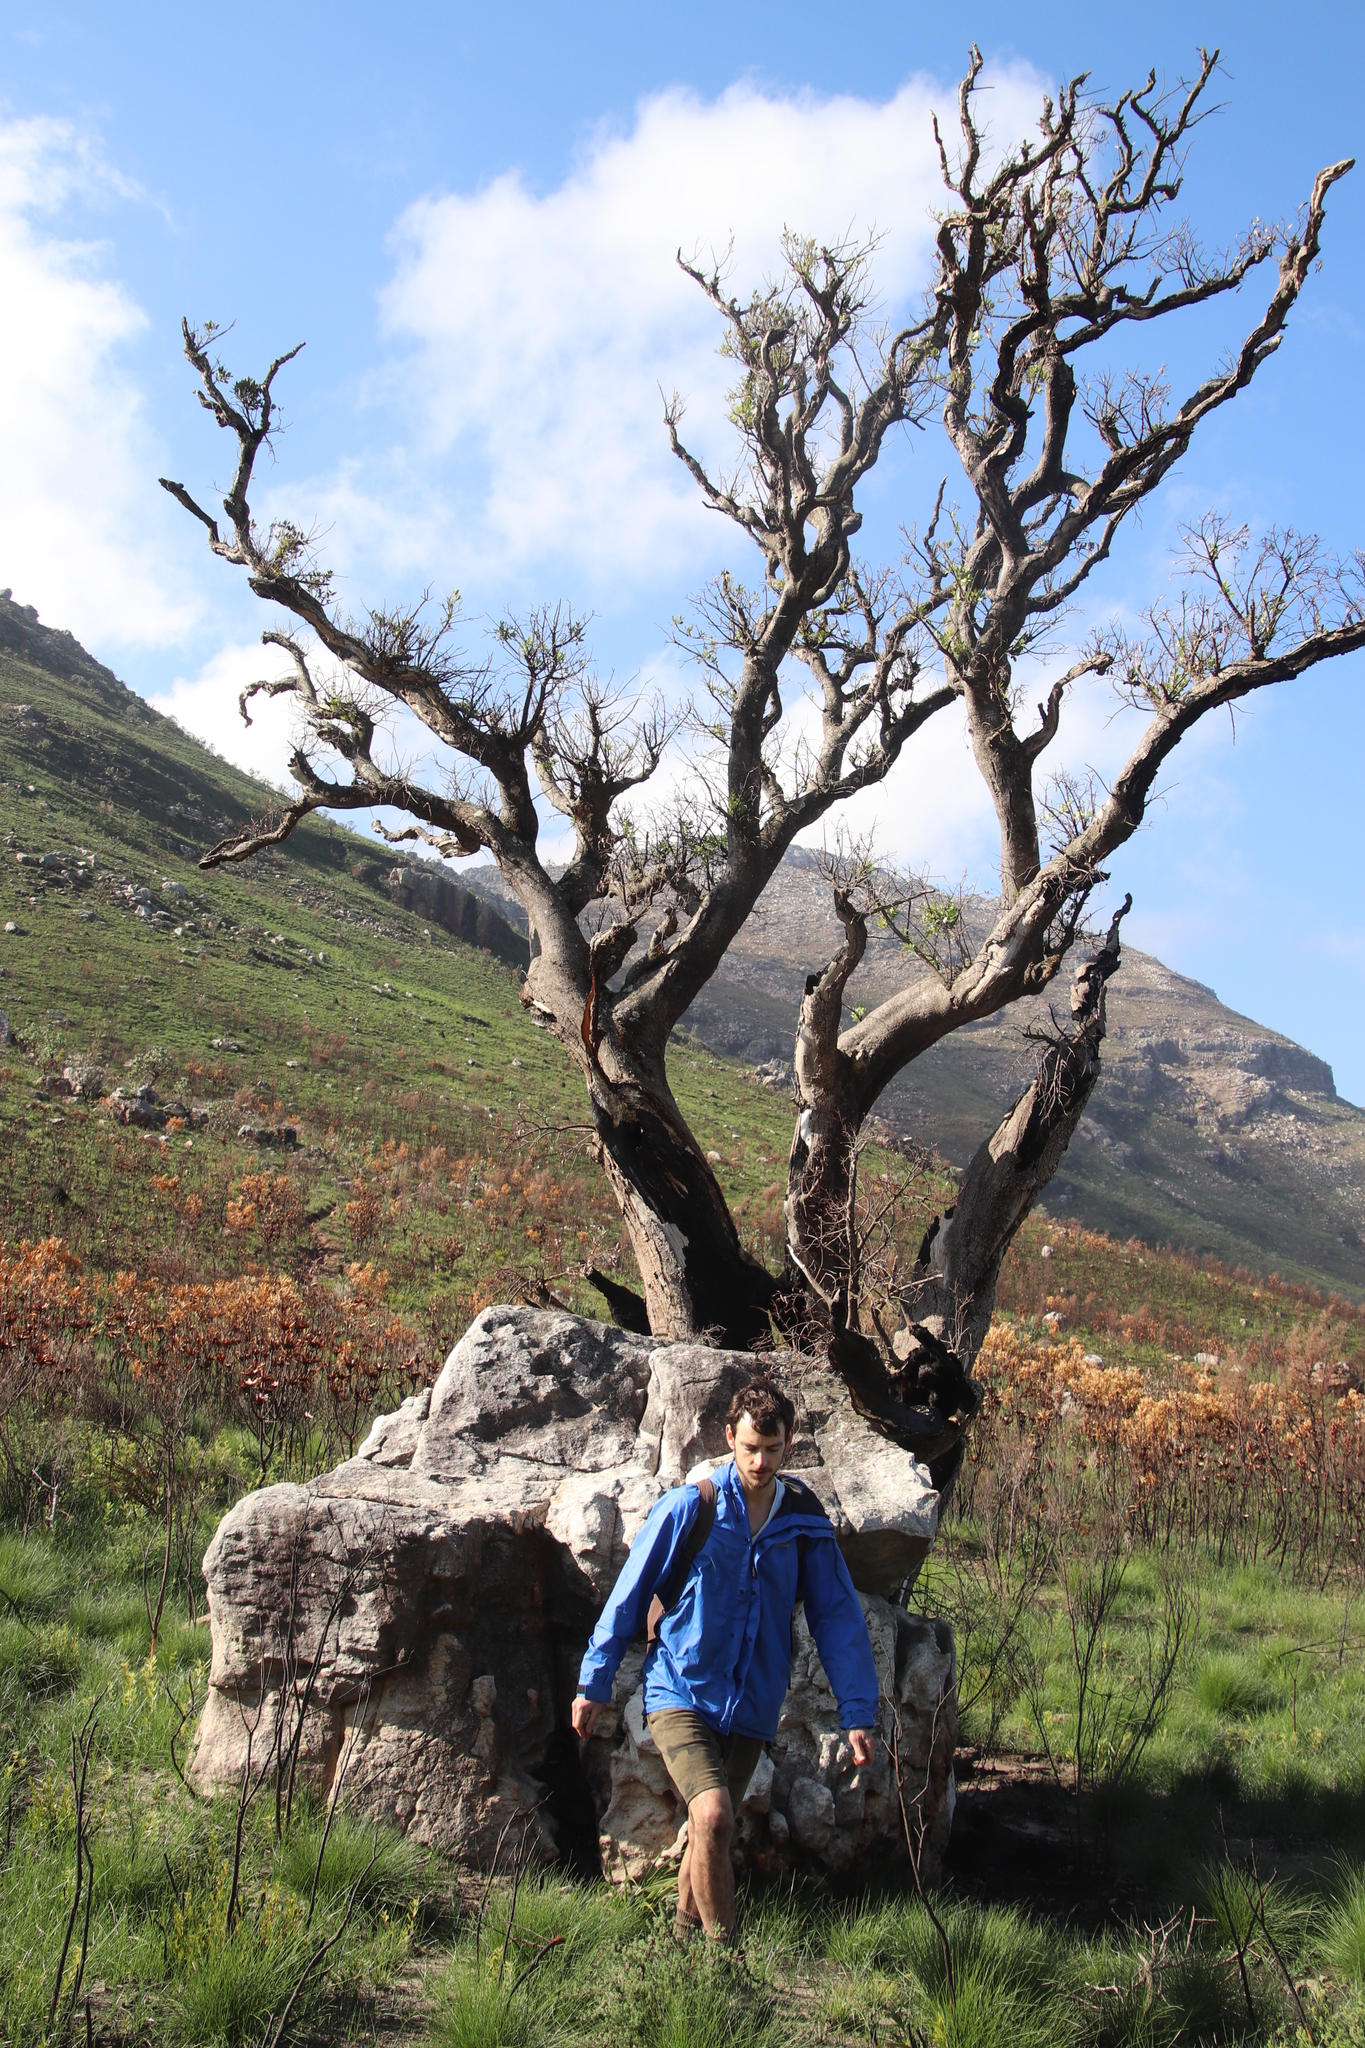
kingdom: Plantae
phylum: Tracheophyta
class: Magnoliopsida
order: Celastrales
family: Celastraceae
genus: Gymnosporia
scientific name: Gymnosporia laurina
